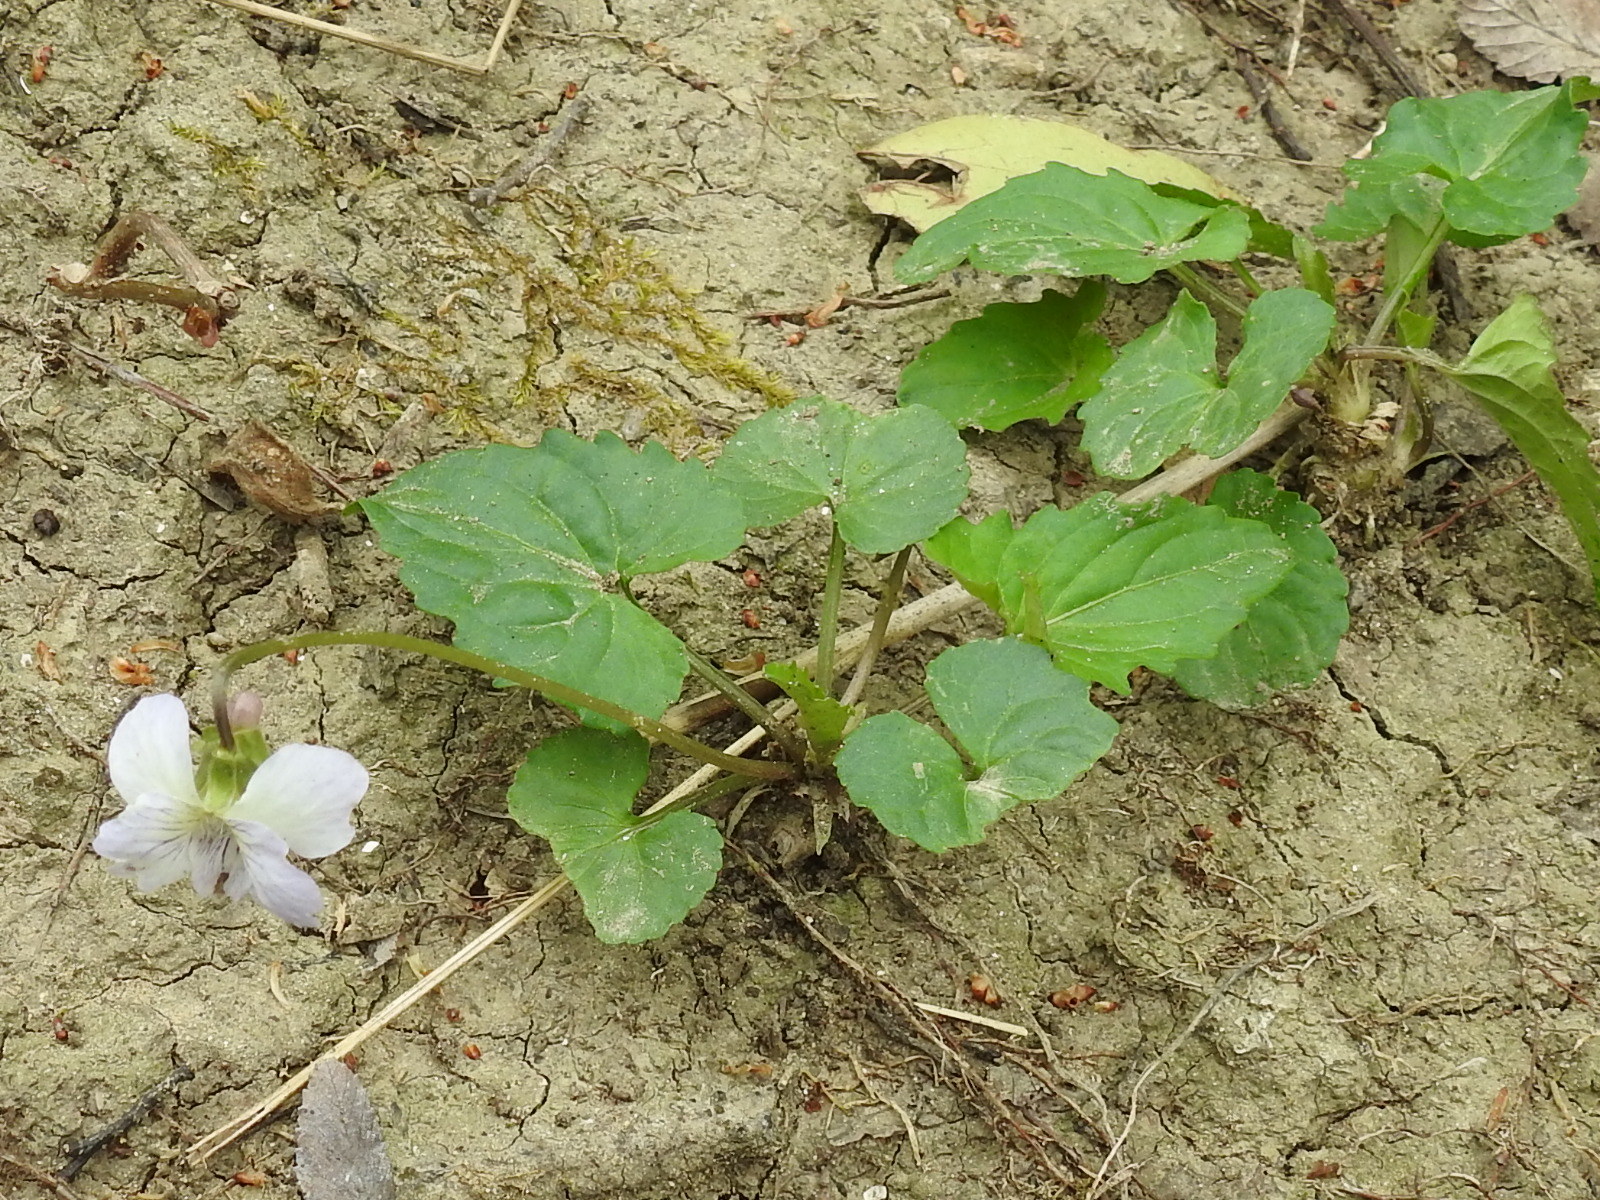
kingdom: Plantae
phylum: Tracheophyta
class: Magnoliopsida
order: Malpighiales
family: Violaceae
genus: Viola
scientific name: Viola sororia
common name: Dooryard violet
